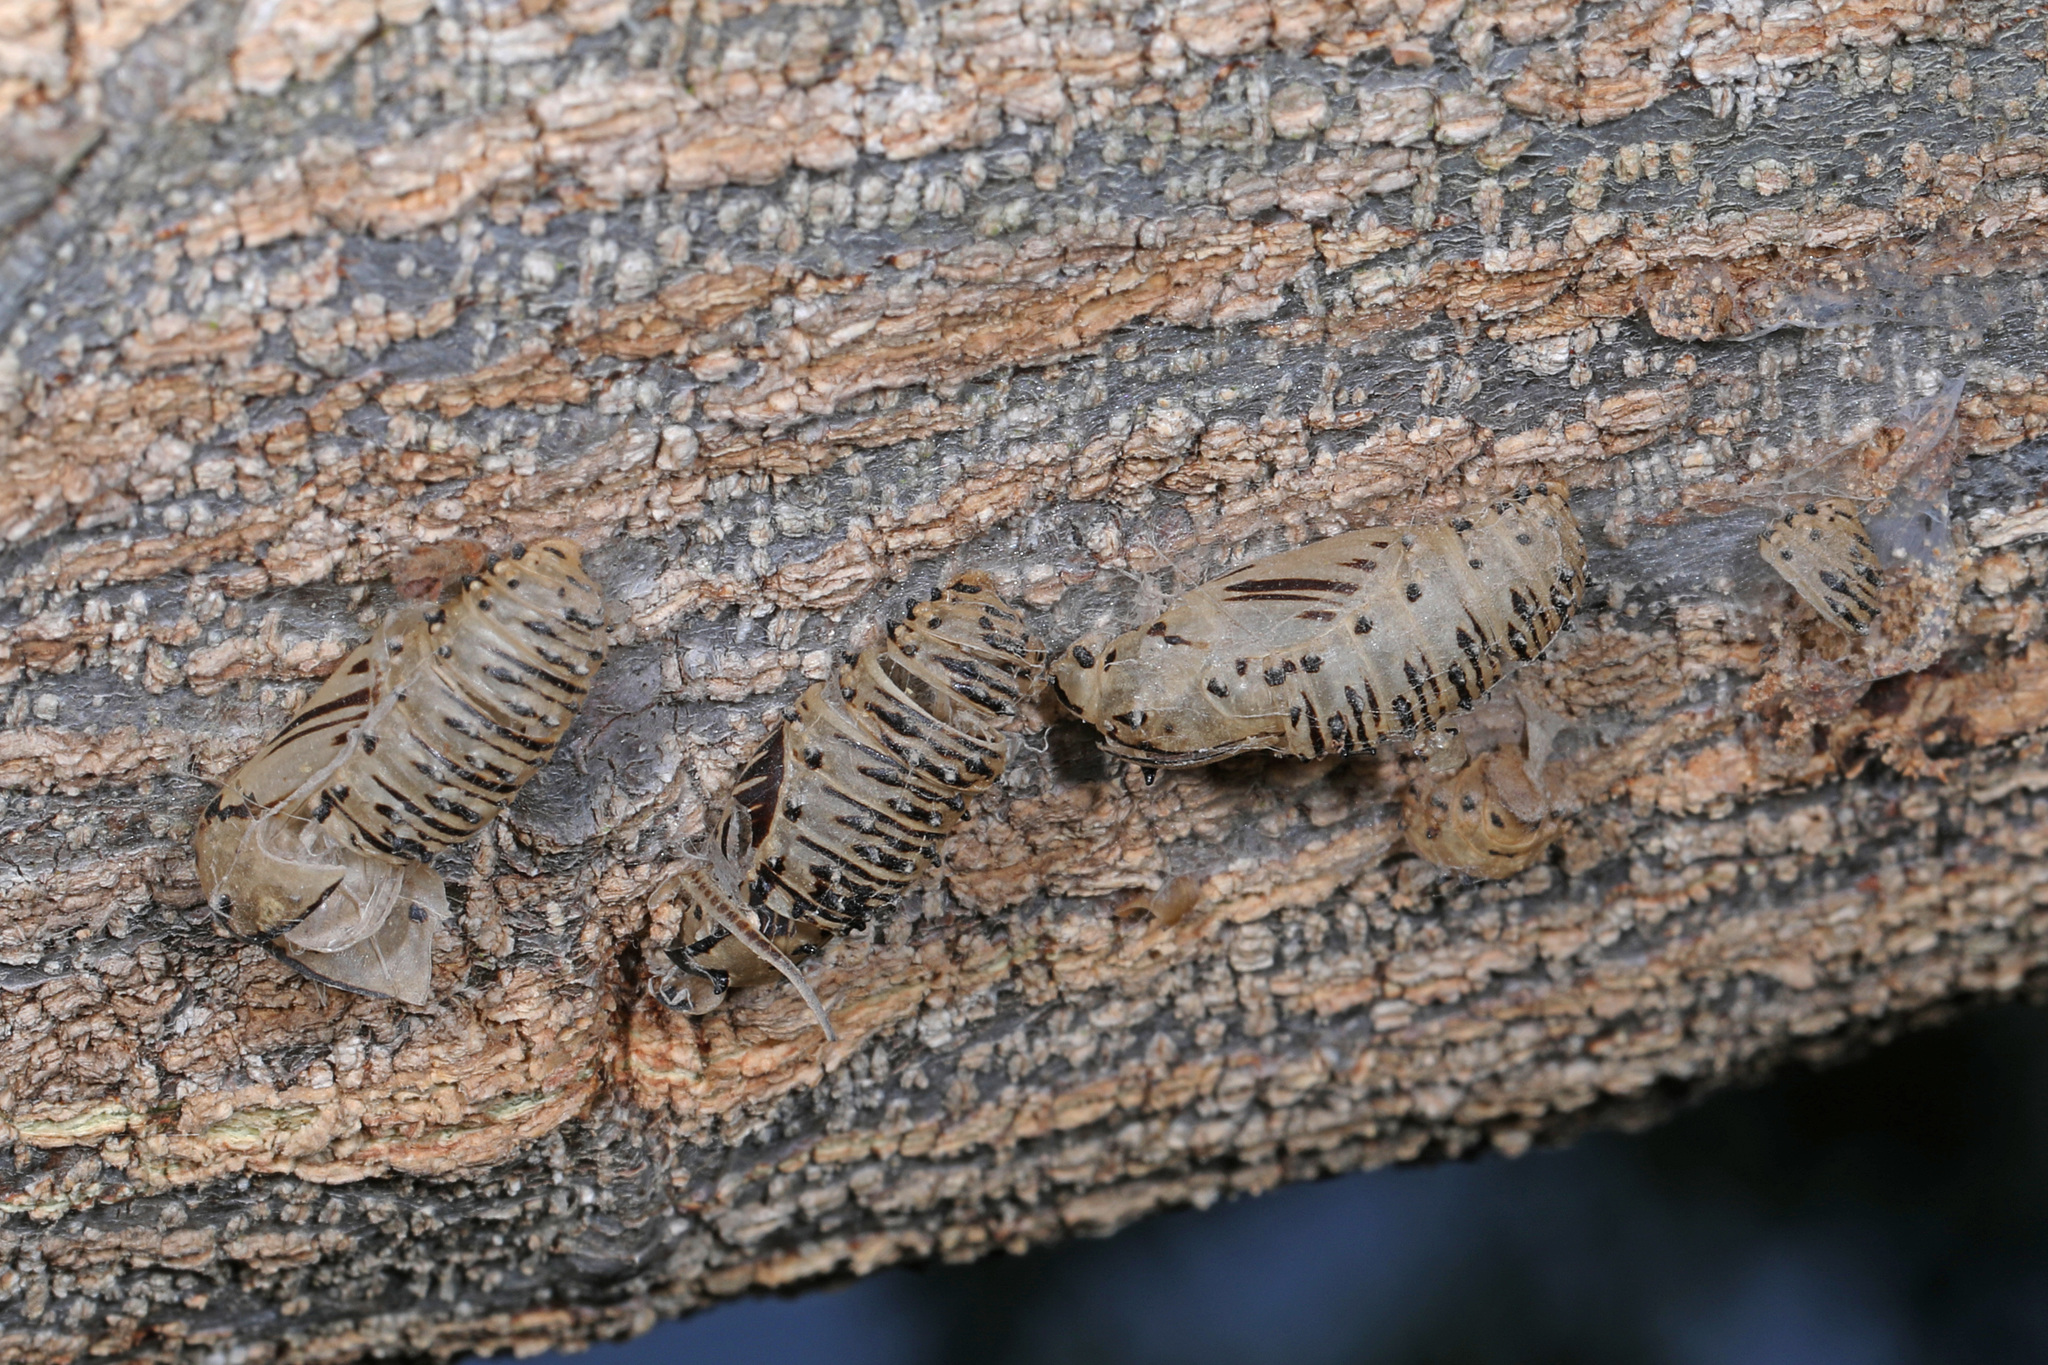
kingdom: Animalia
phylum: Arthropoda
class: Insecta
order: Lepidoptera
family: Lycaenidae
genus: Melanis
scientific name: Melanis pixe
